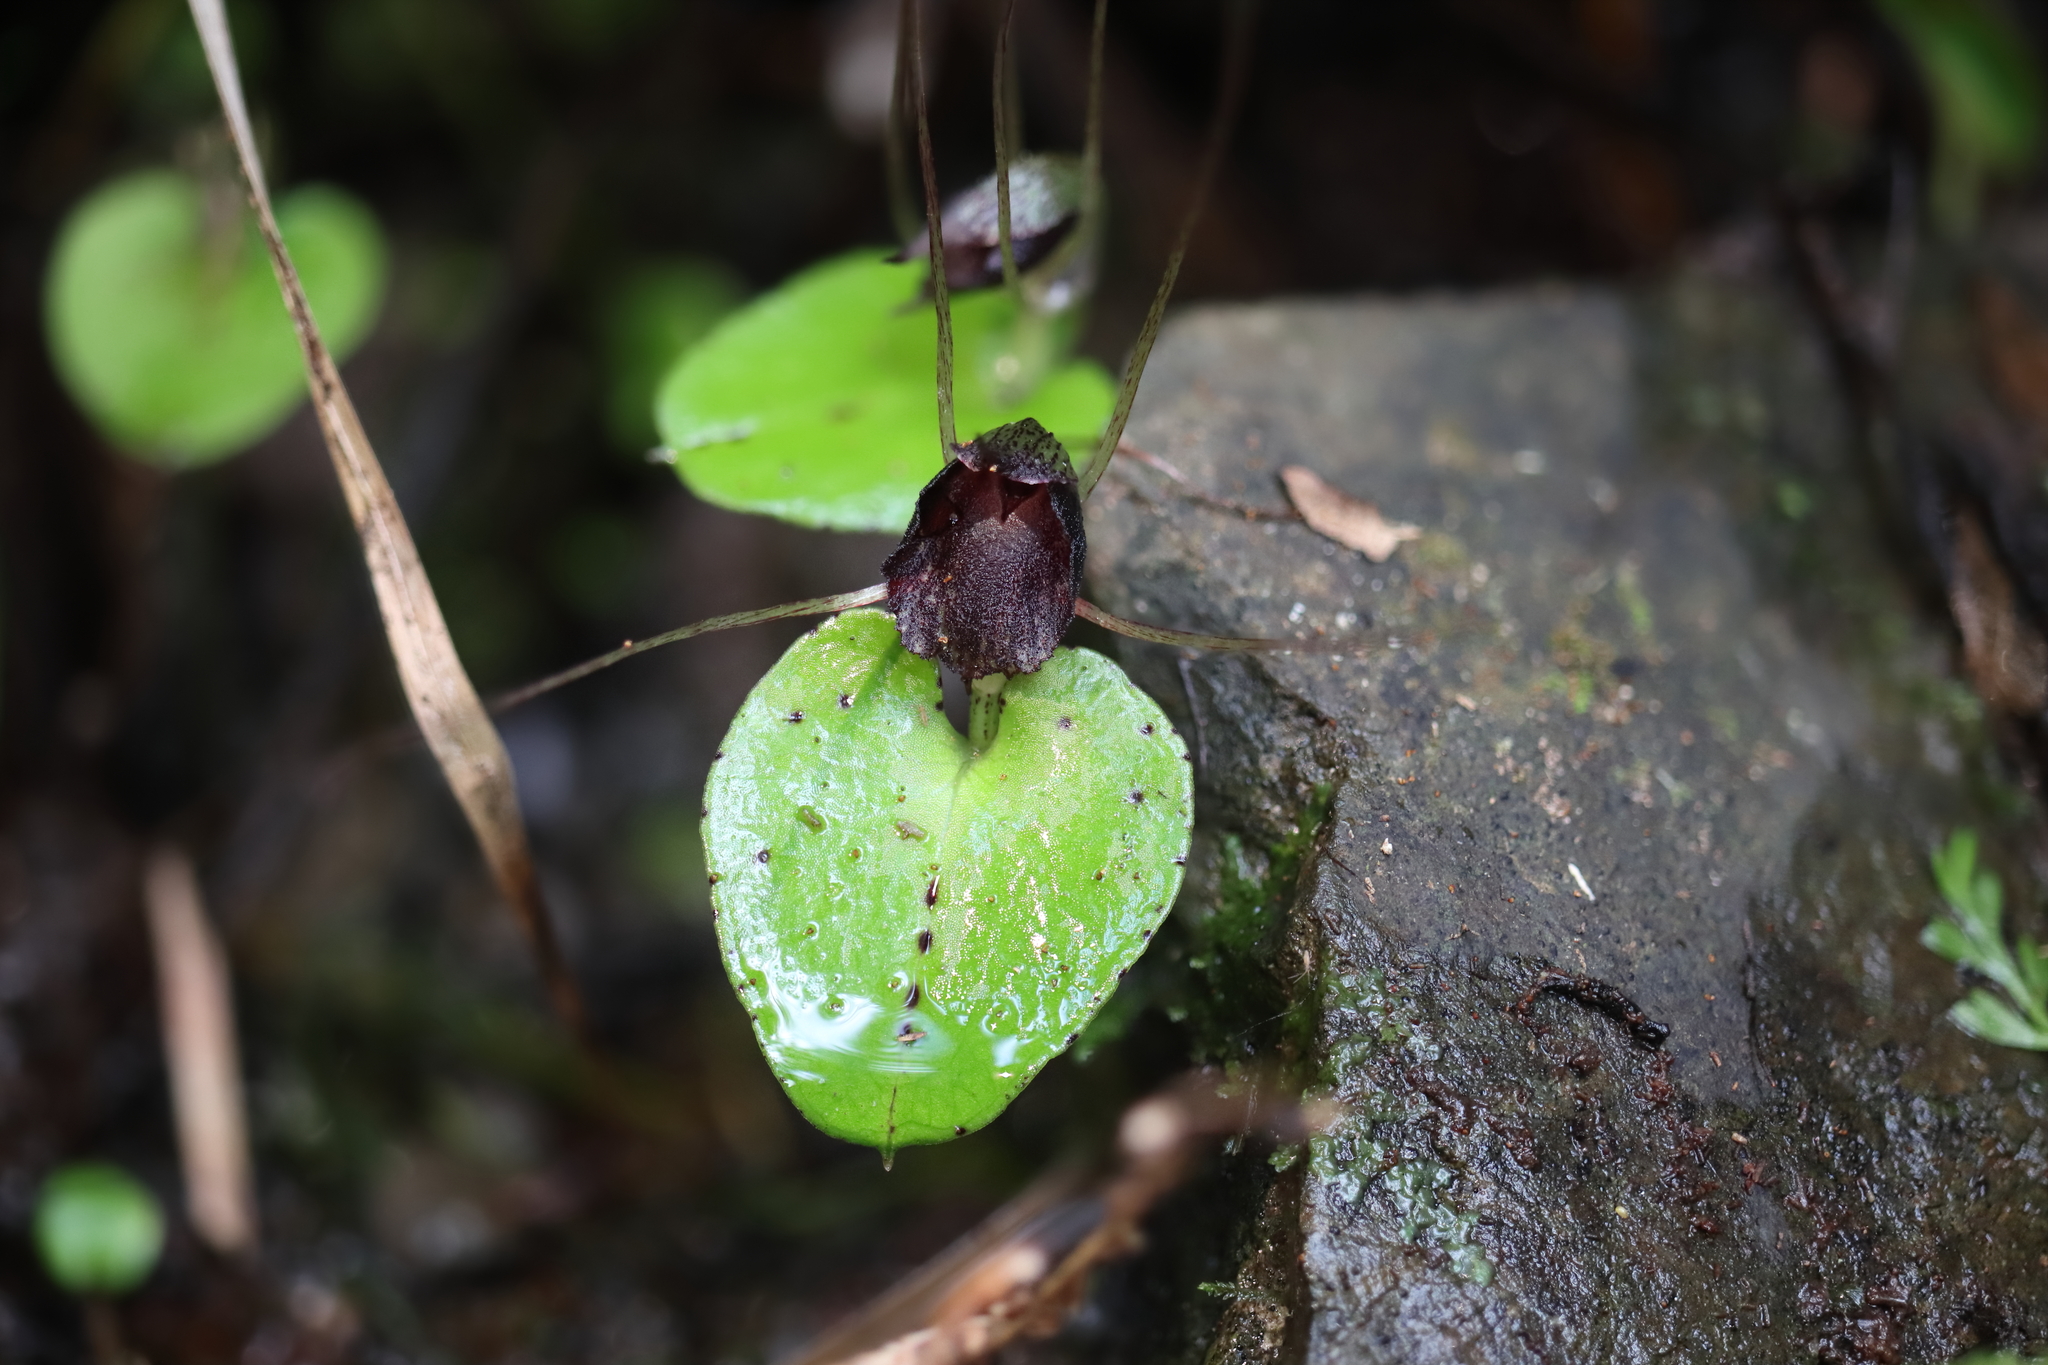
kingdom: Plantae
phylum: Tracheophyta
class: Liliopsida
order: Asparagales
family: Orchidaceae
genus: Corybas
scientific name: Corybas iridescens
